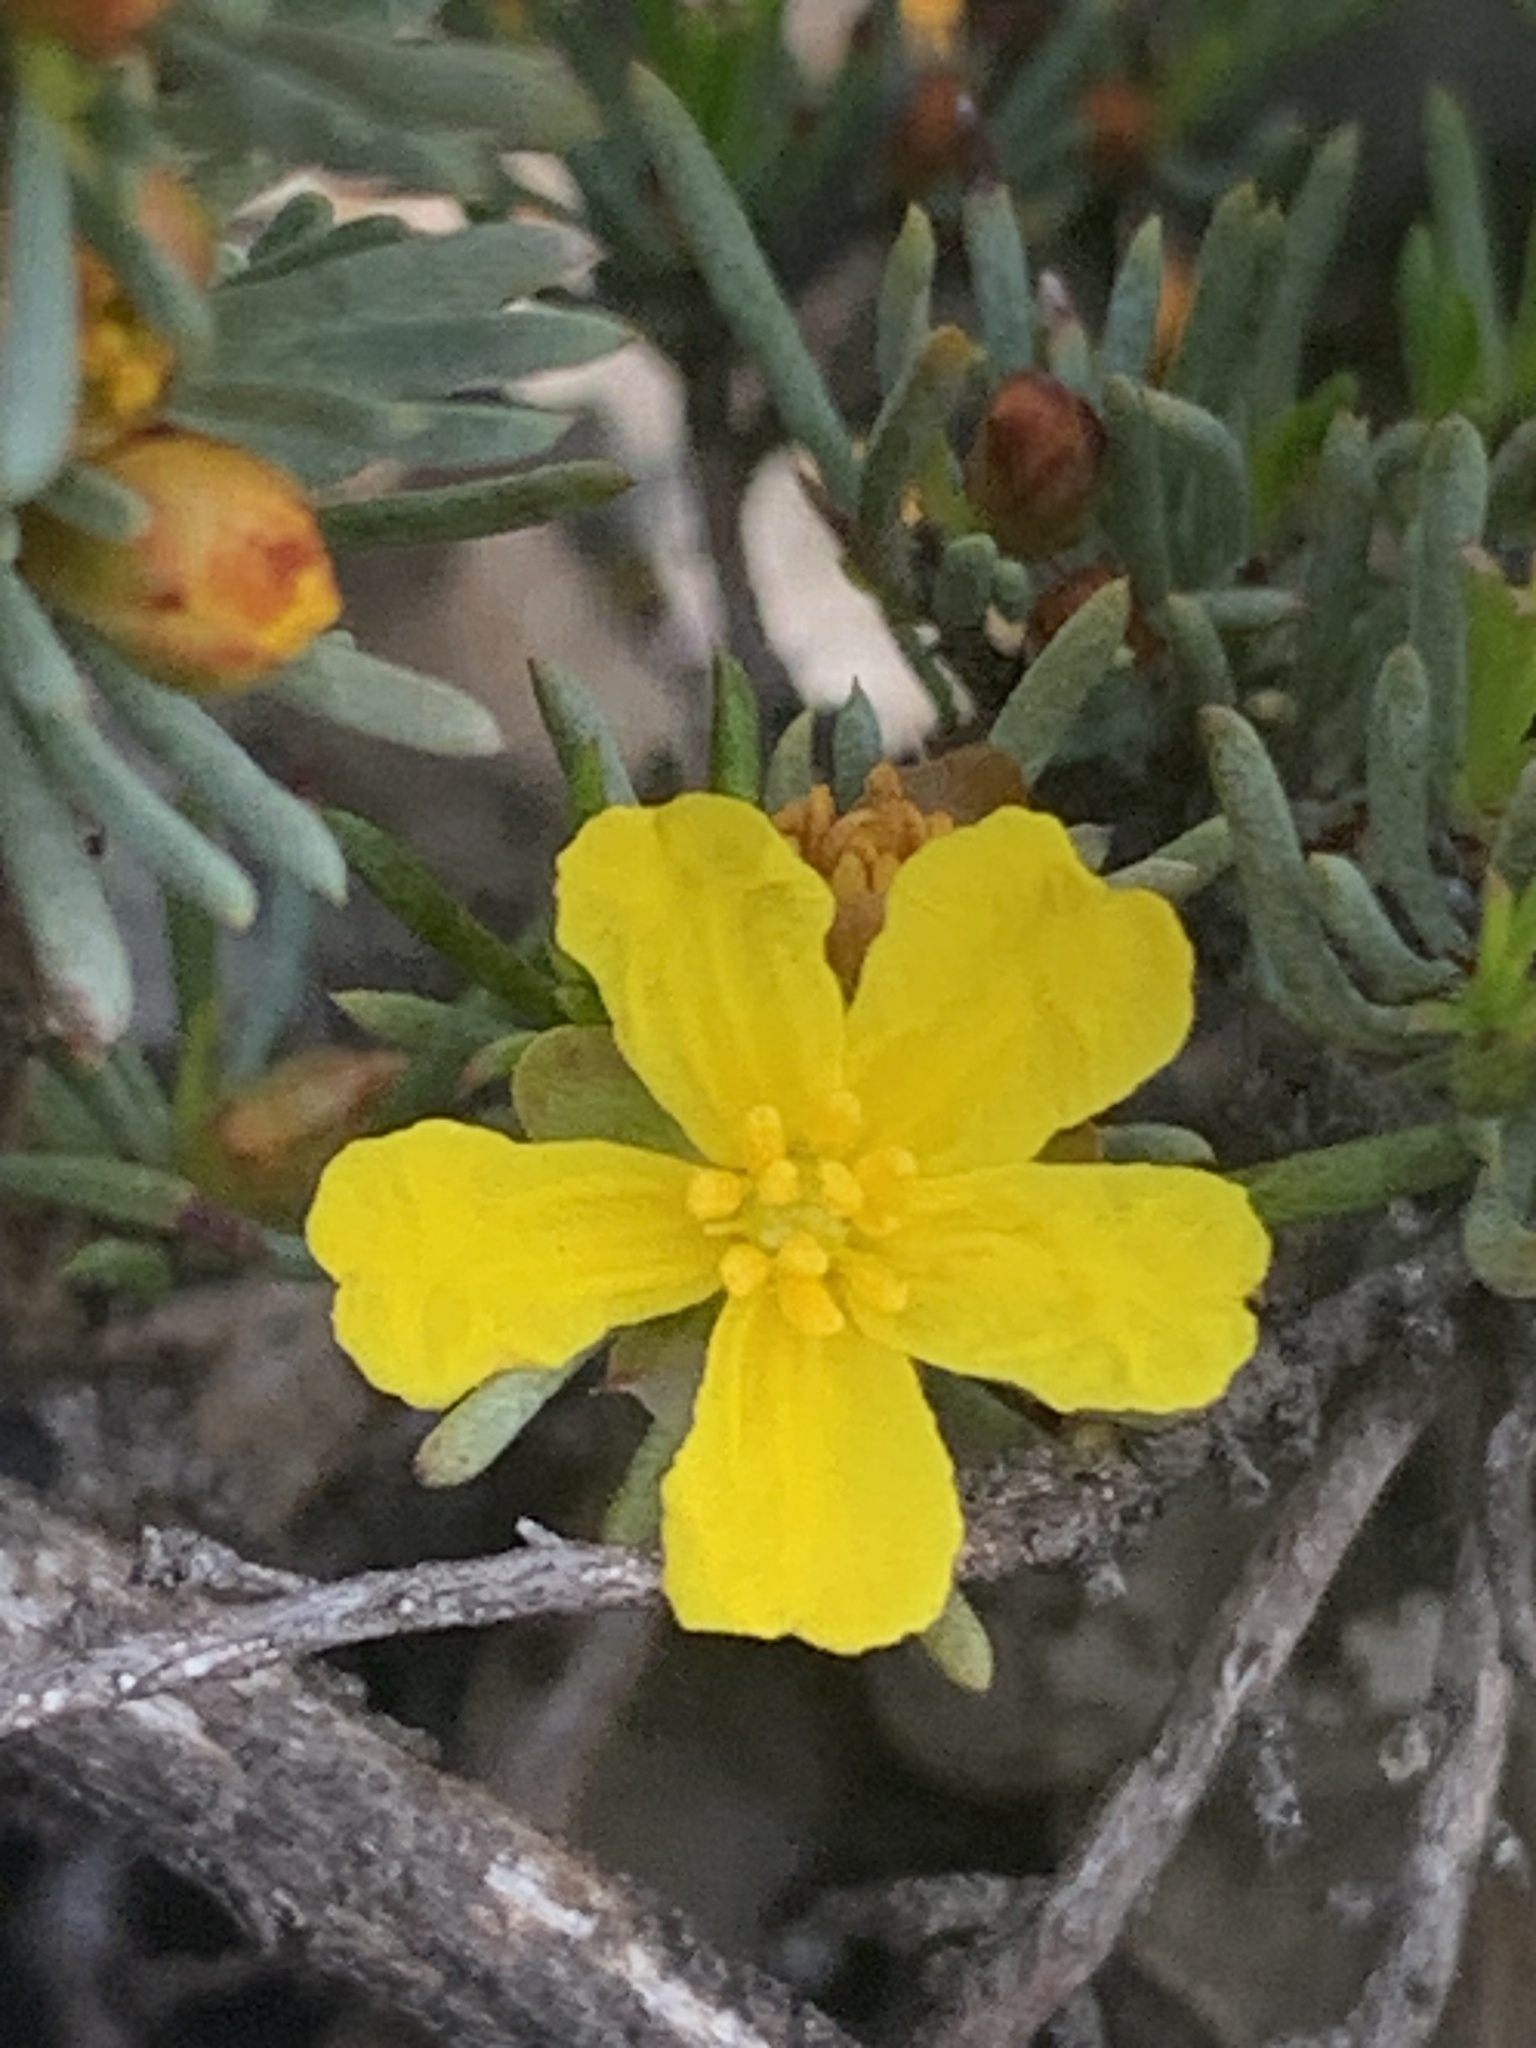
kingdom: Plantae
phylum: Tracheophyta
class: Magnoliopsida
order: Dilleniales
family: Dilleniaceae
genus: Hibbertia
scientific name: Hibbertia hemignosta
